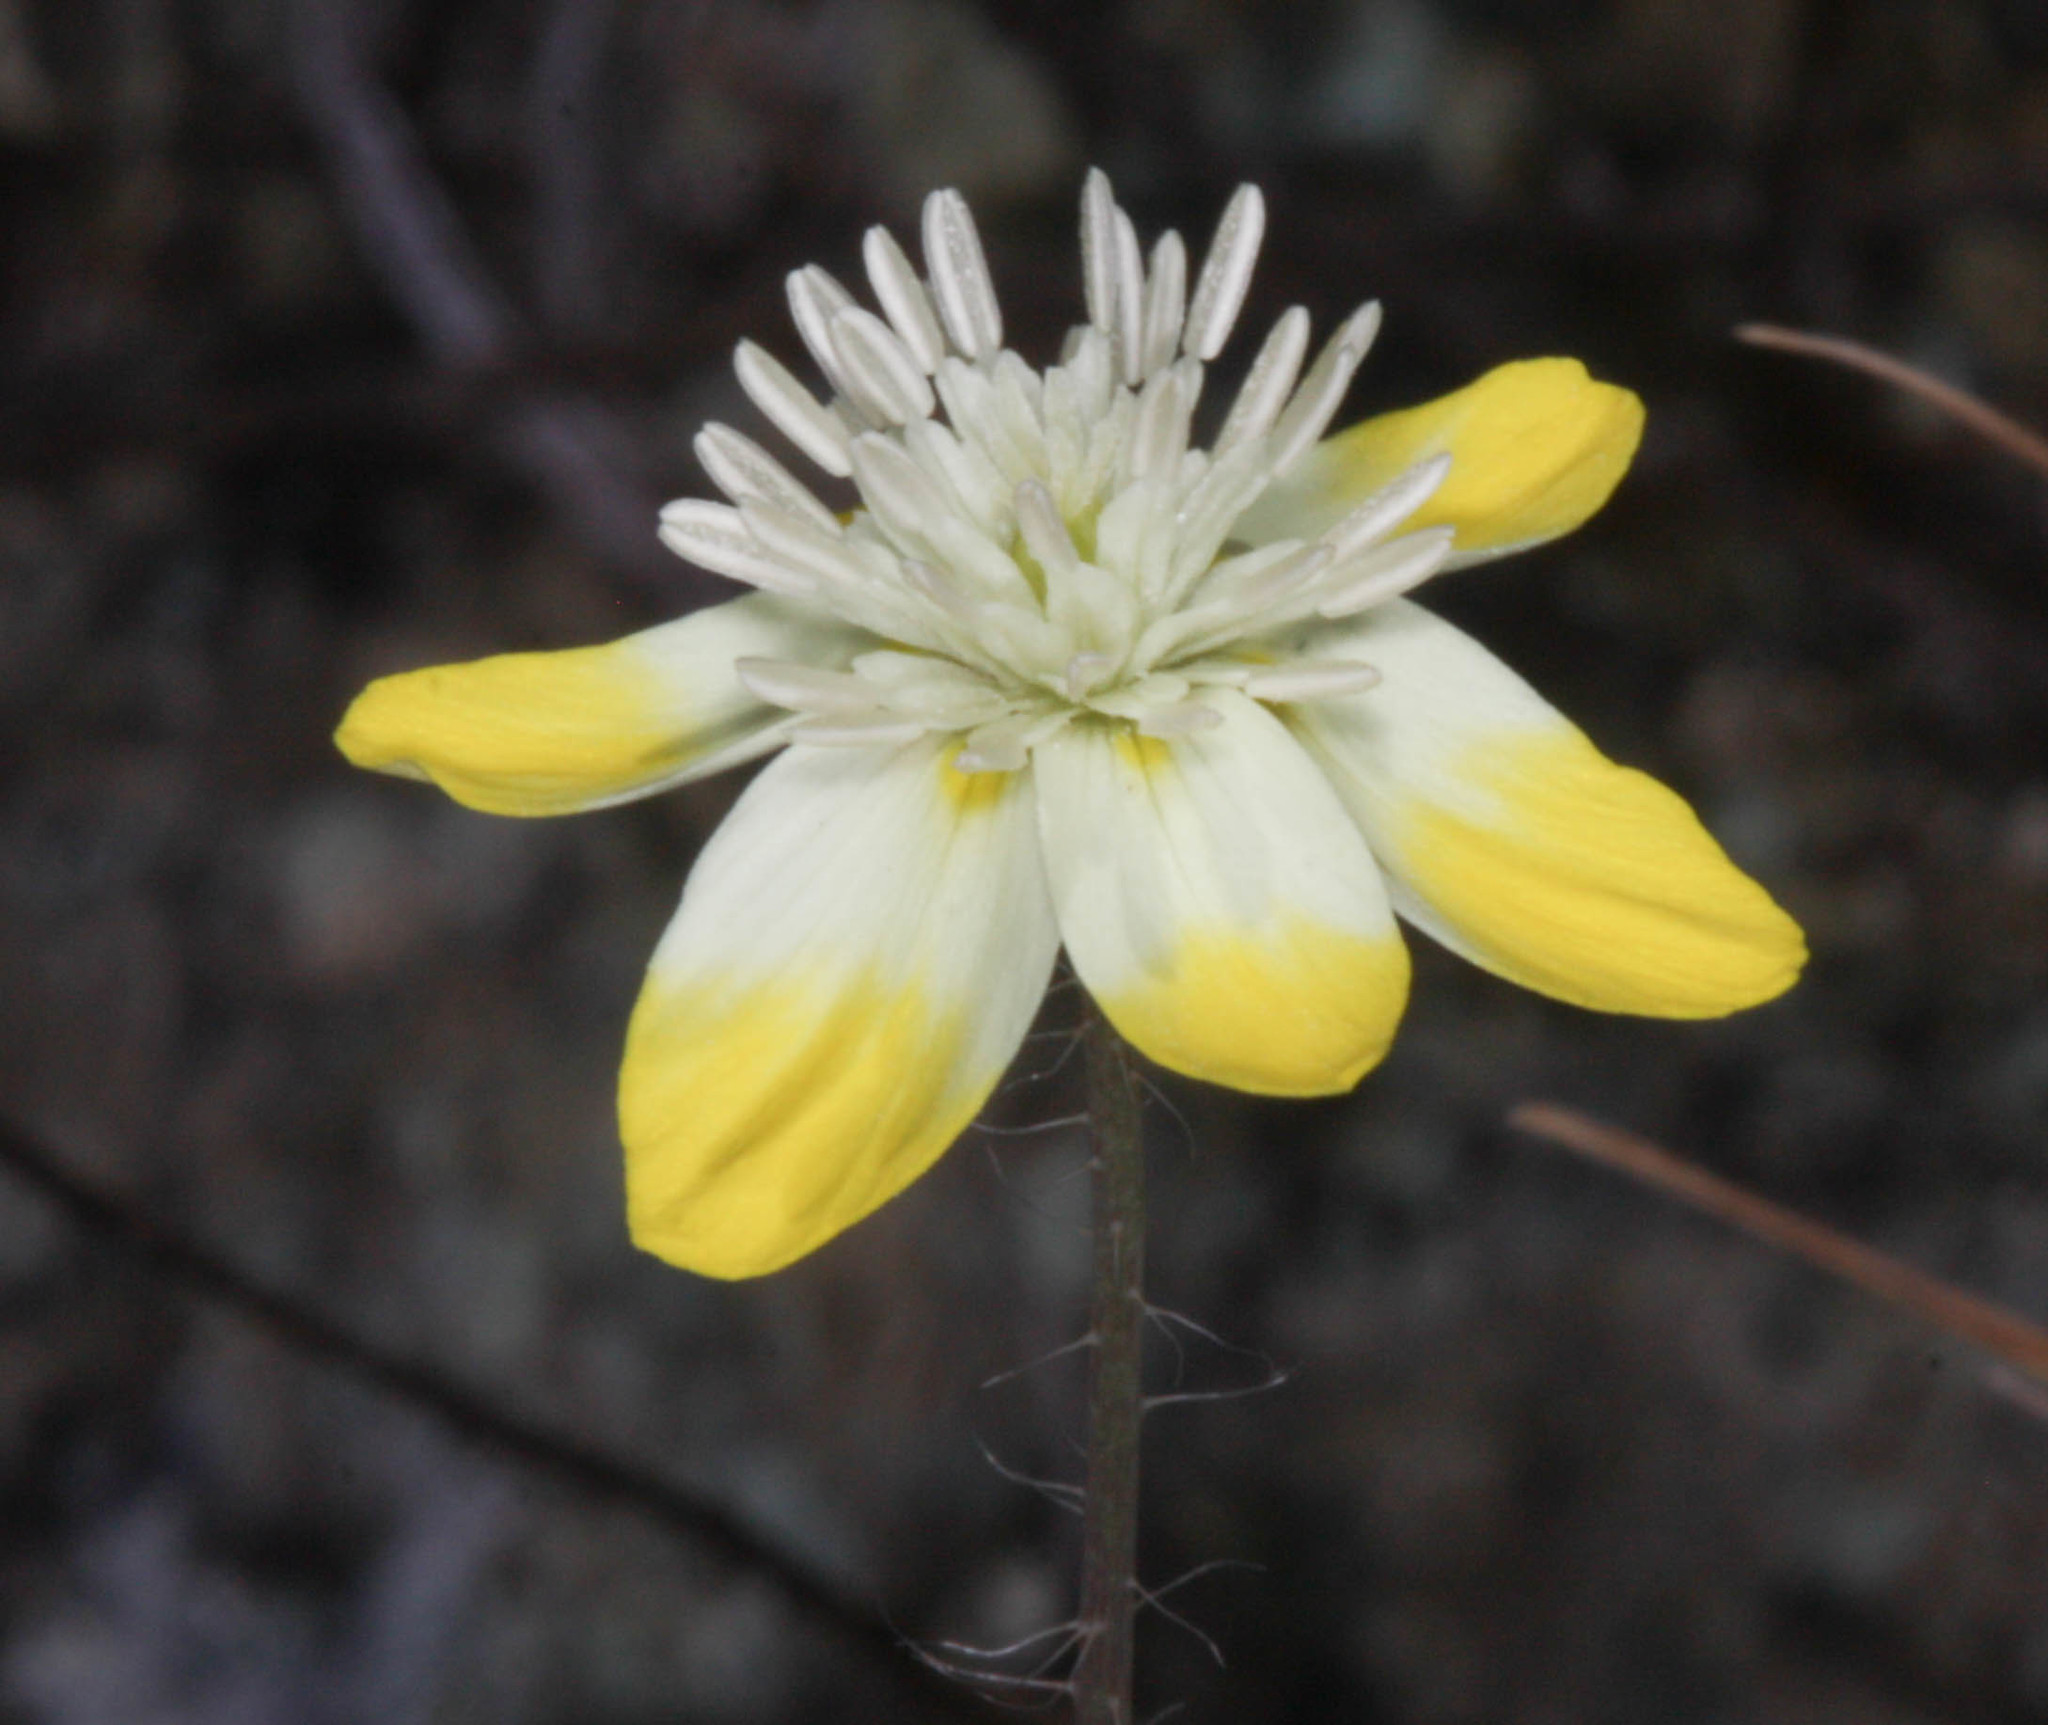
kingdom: Plantae
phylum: Tracheophyta
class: Magnoliopsida
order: Ranunculales
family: Papaveraceae
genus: Platystemon
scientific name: Platystemon californicus
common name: Cream-cups
